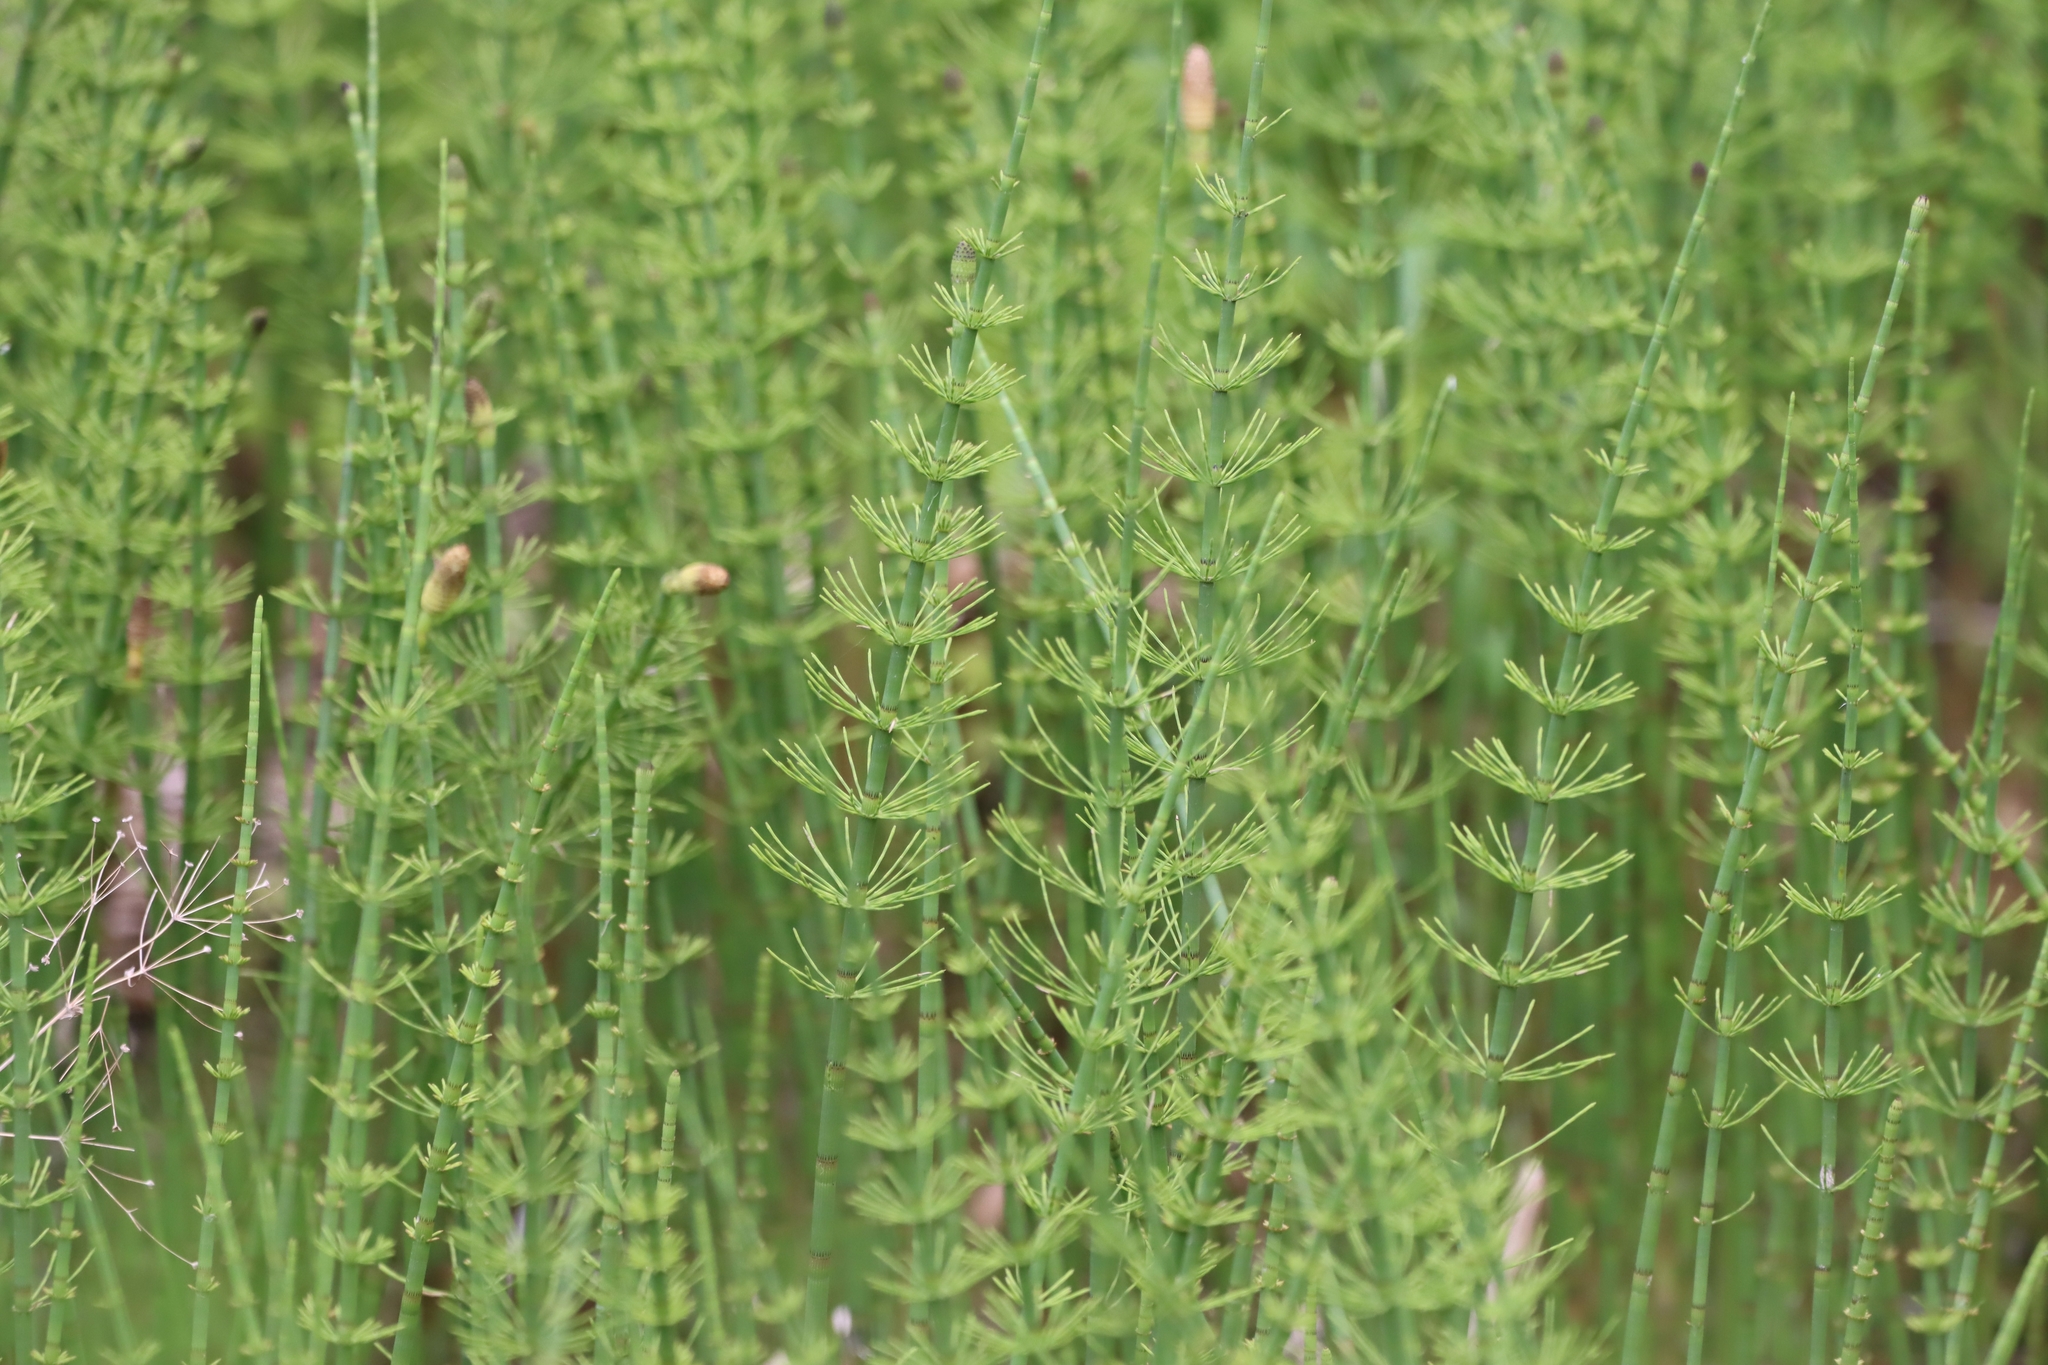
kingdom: Plantae
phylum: Tracheophyta
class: Polypodiopsida
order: Equisetales
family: Equisetaceae
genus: Equisetum
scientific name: Equisetum fluviatile
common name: Water horsetail
